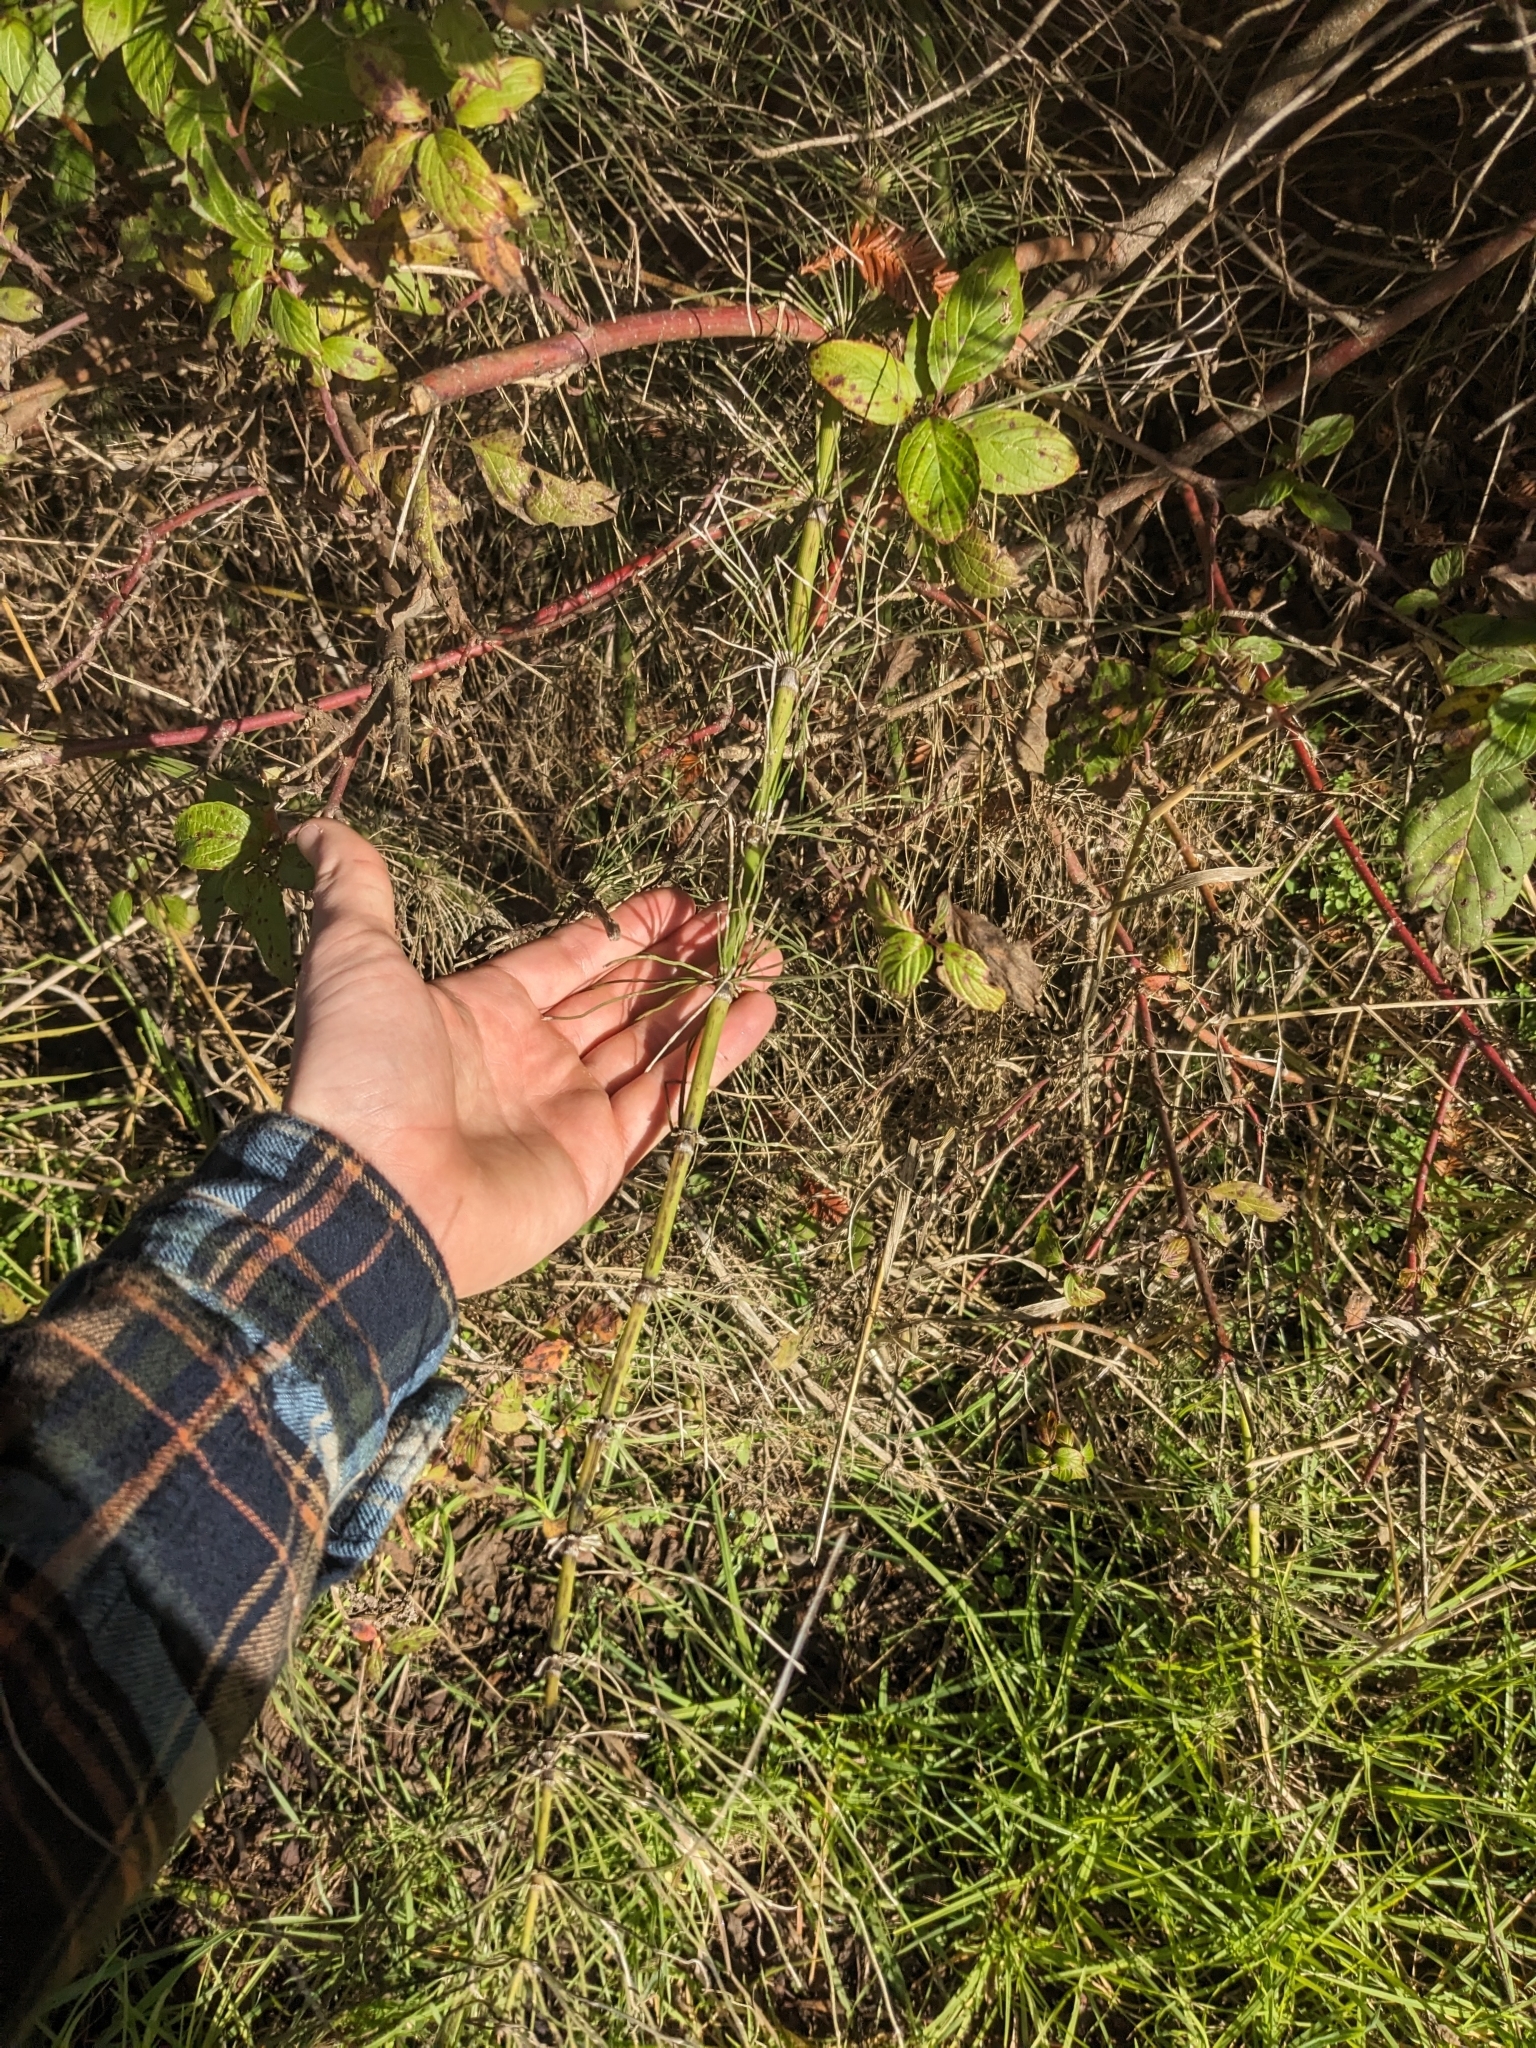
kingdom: Plantae
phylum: Tracheophyta
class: Polypodiopsida
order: Equisetales
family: Equisetaceae
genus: Equisetum
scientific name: Equisetum telmateia
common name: Great horsetail
